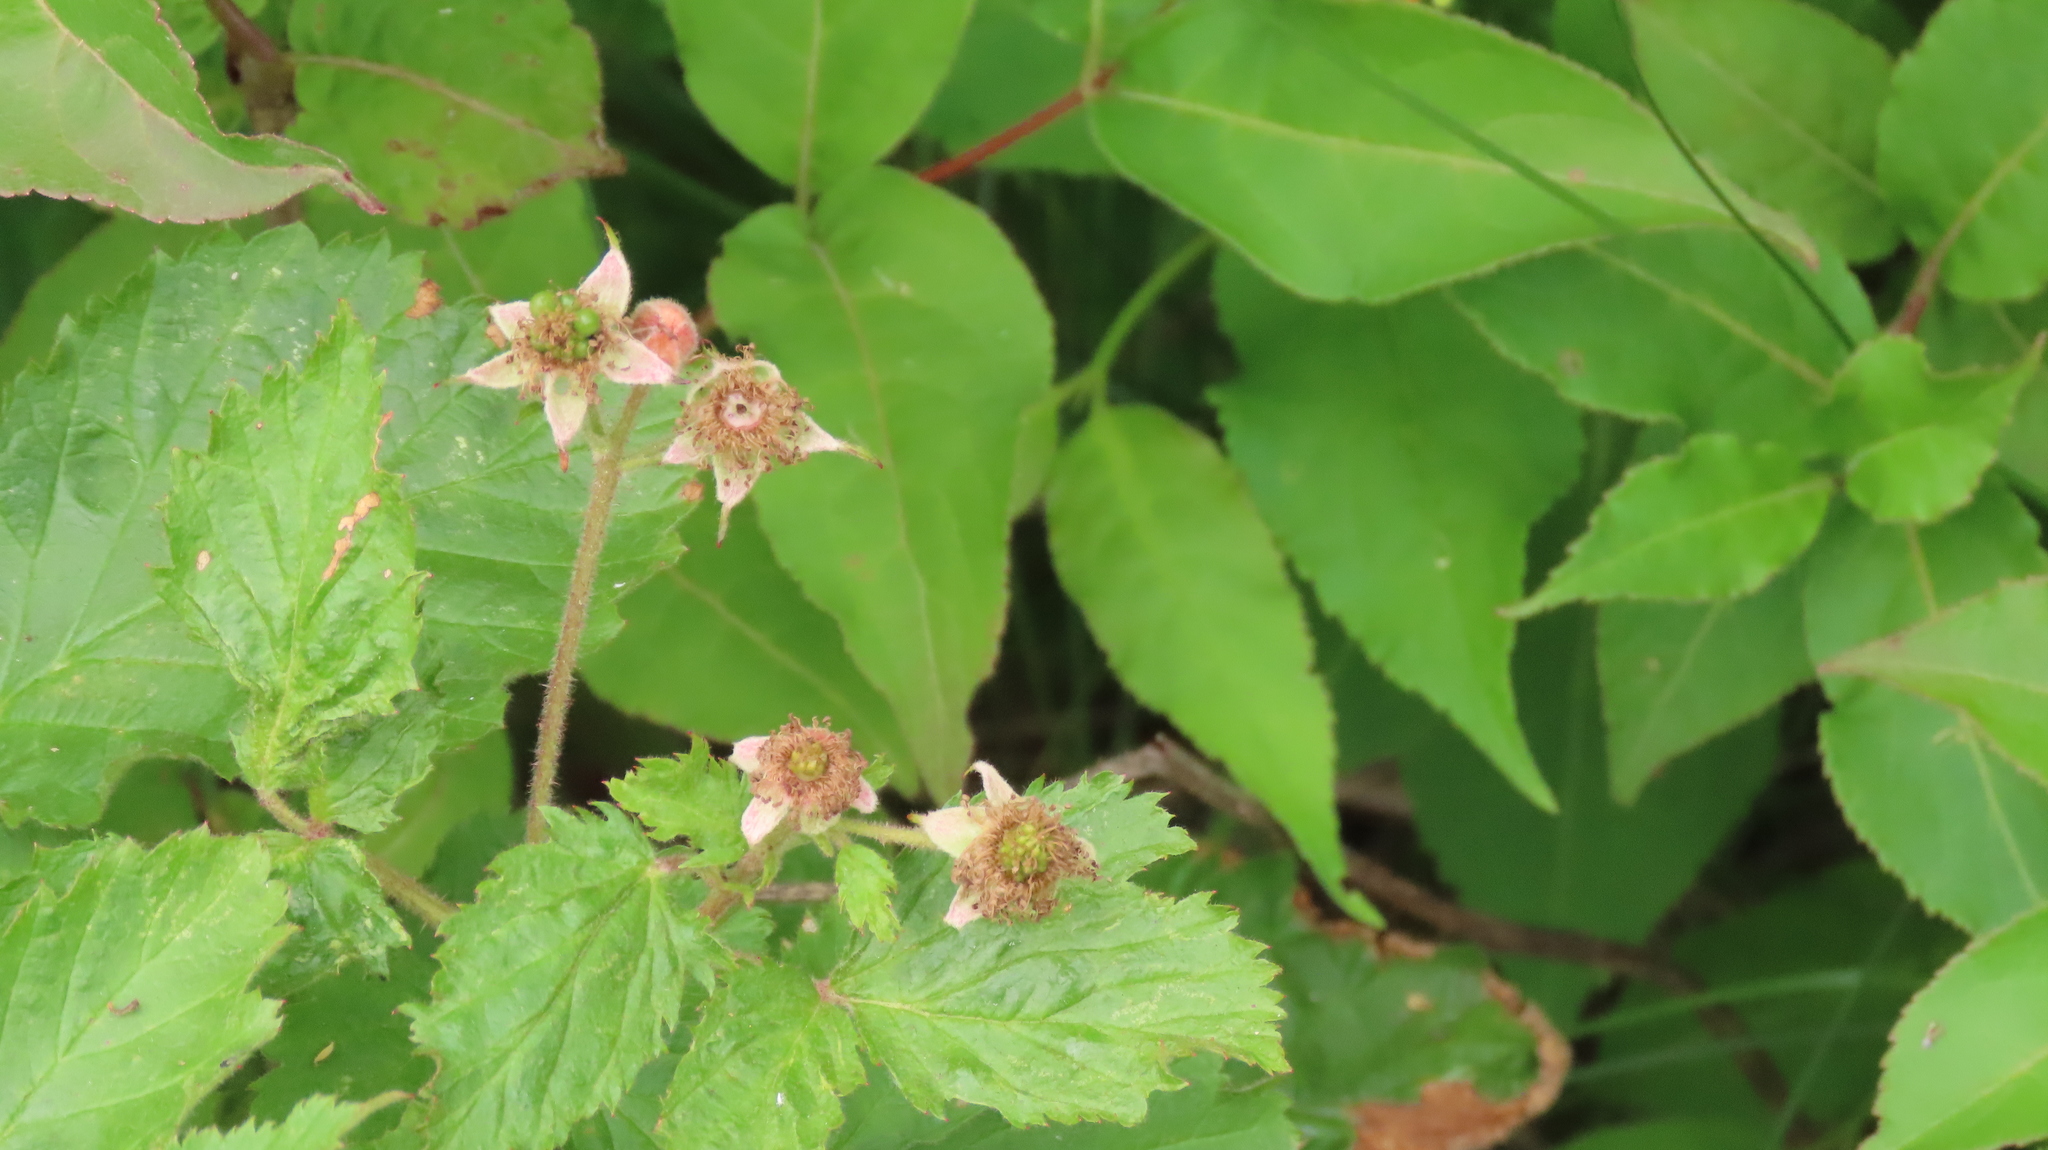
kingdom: Plantae
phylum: Tracheophyta
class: Magnoliopsida
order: Rosales
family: Rosaceae
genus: Rubus
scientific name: Rubus idaeus
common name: Raspberry
